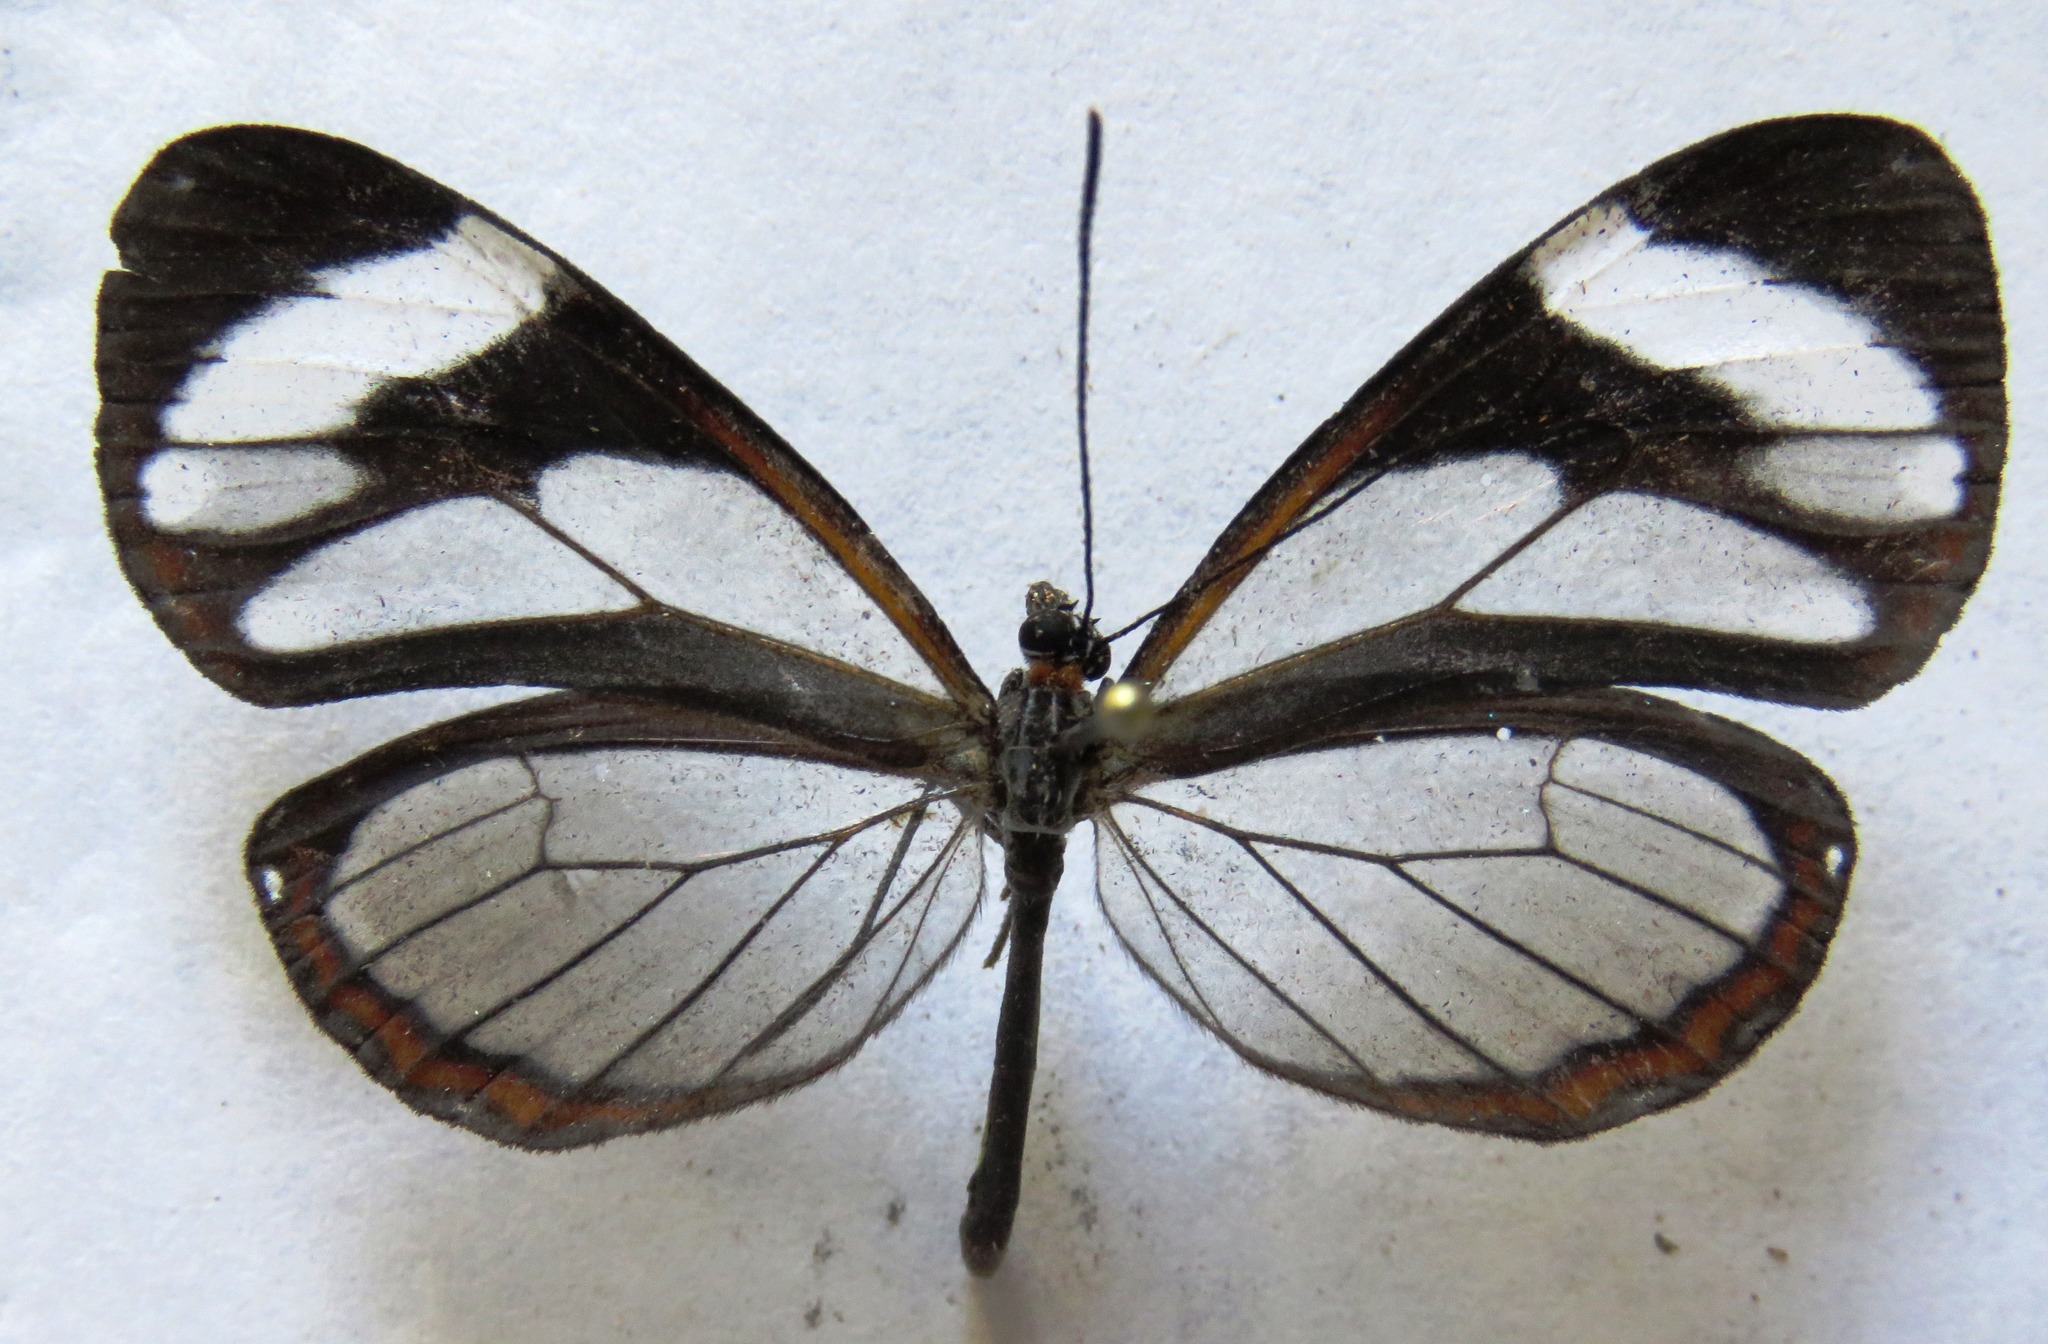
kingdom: Animalia
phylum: Arthropoda
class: Insecta
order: Lepidoptera
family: Nymphalidae
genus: Ithomia
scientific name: Ithomia patilla
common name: Patilla clearwing
